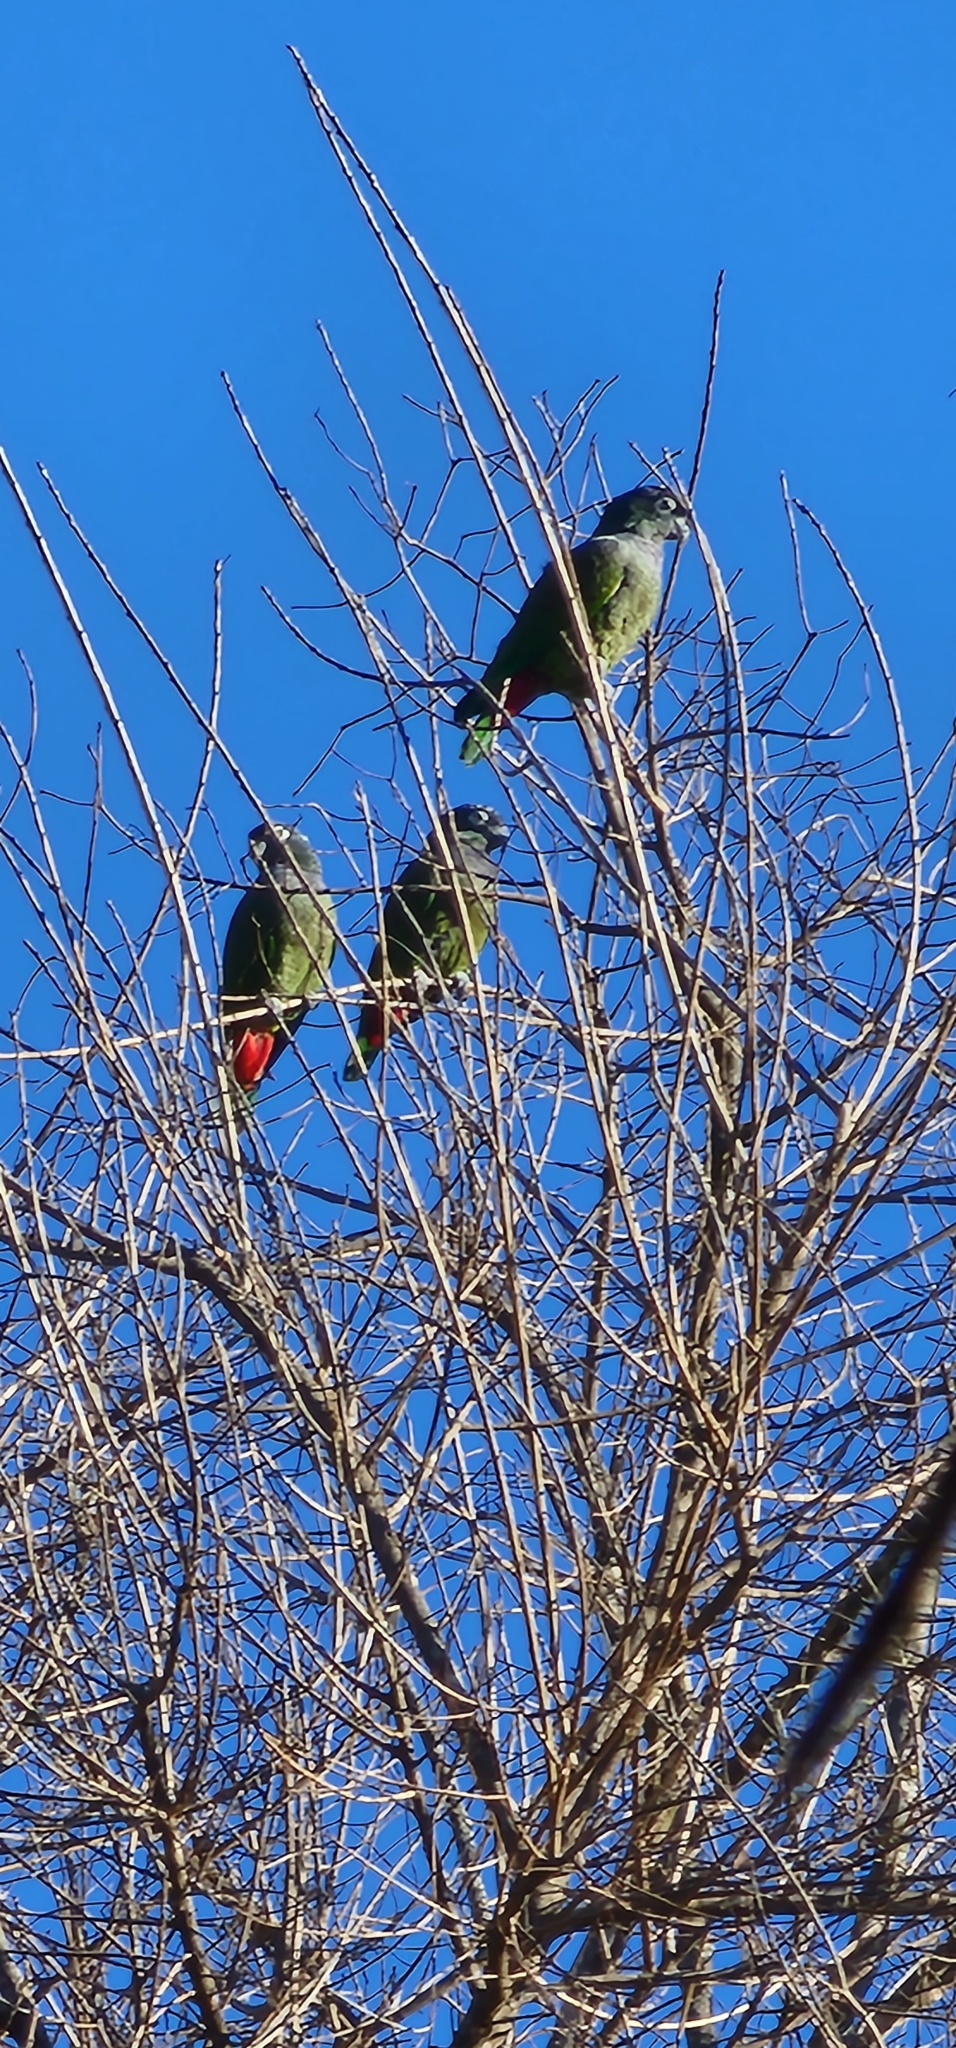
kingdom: Animalia
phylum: Chordata
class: Aves
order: Psittaciformes
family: Psittacidae
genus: Pionus
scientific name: Pionus maximiliani
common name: Scaly-headed parrot
